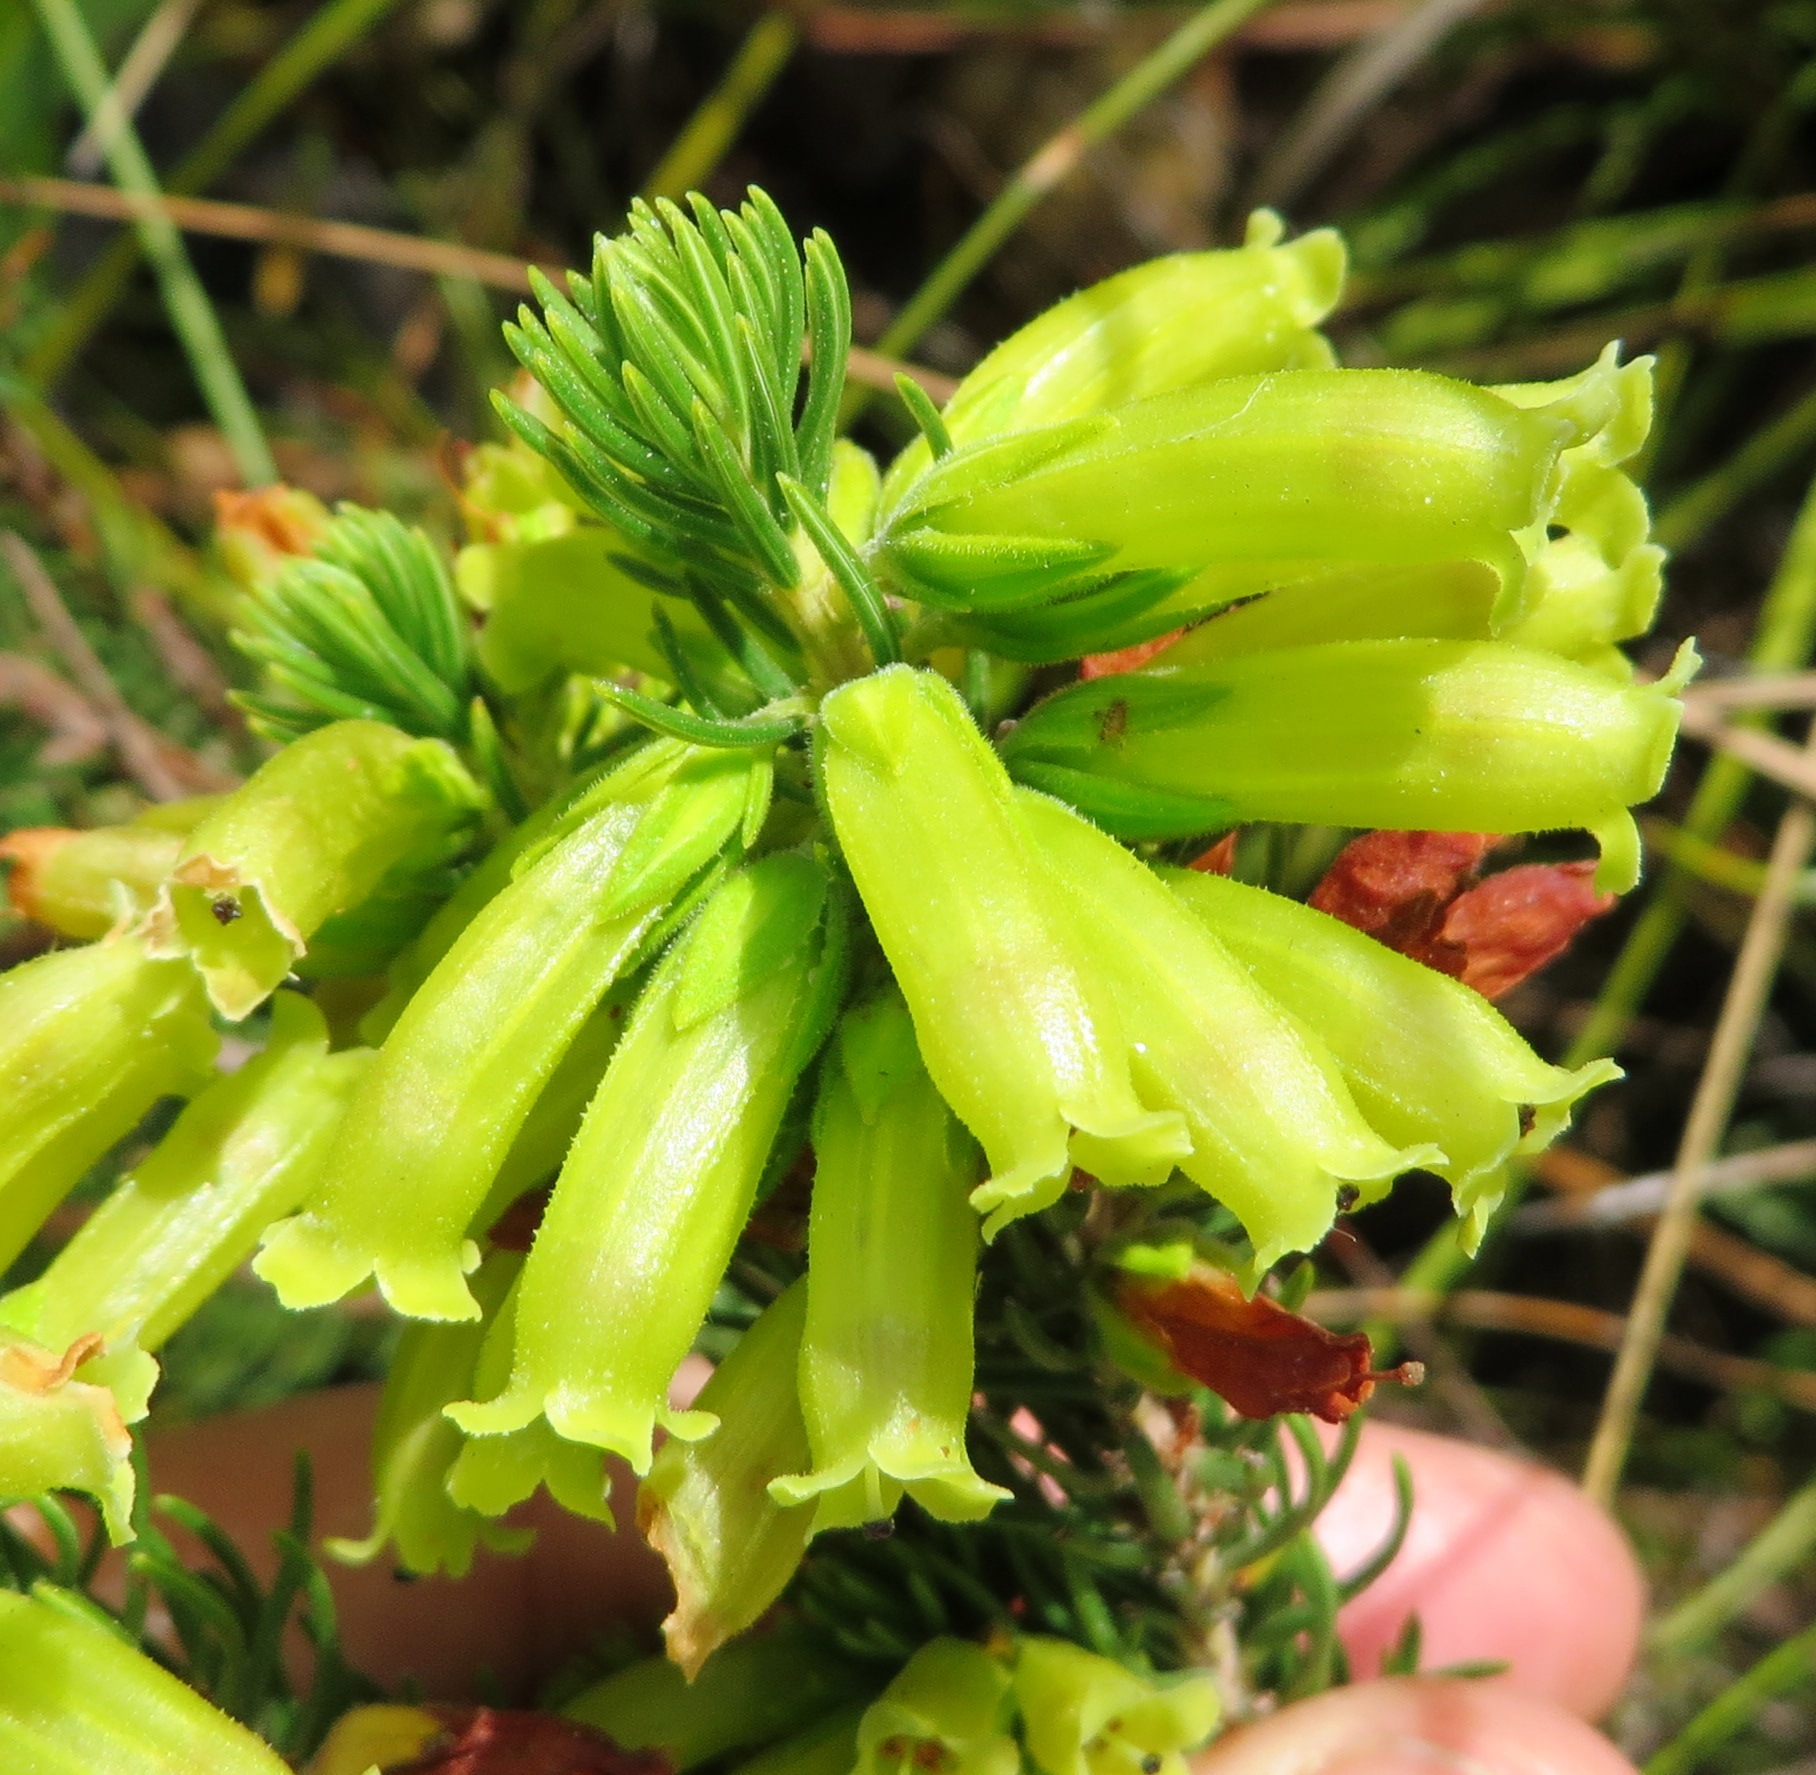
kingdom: Plantae
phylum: Tracheophyta
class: Magnoliopsida
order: Ericales
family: Ericaceae
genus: Erica
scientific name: Erica viscaria
